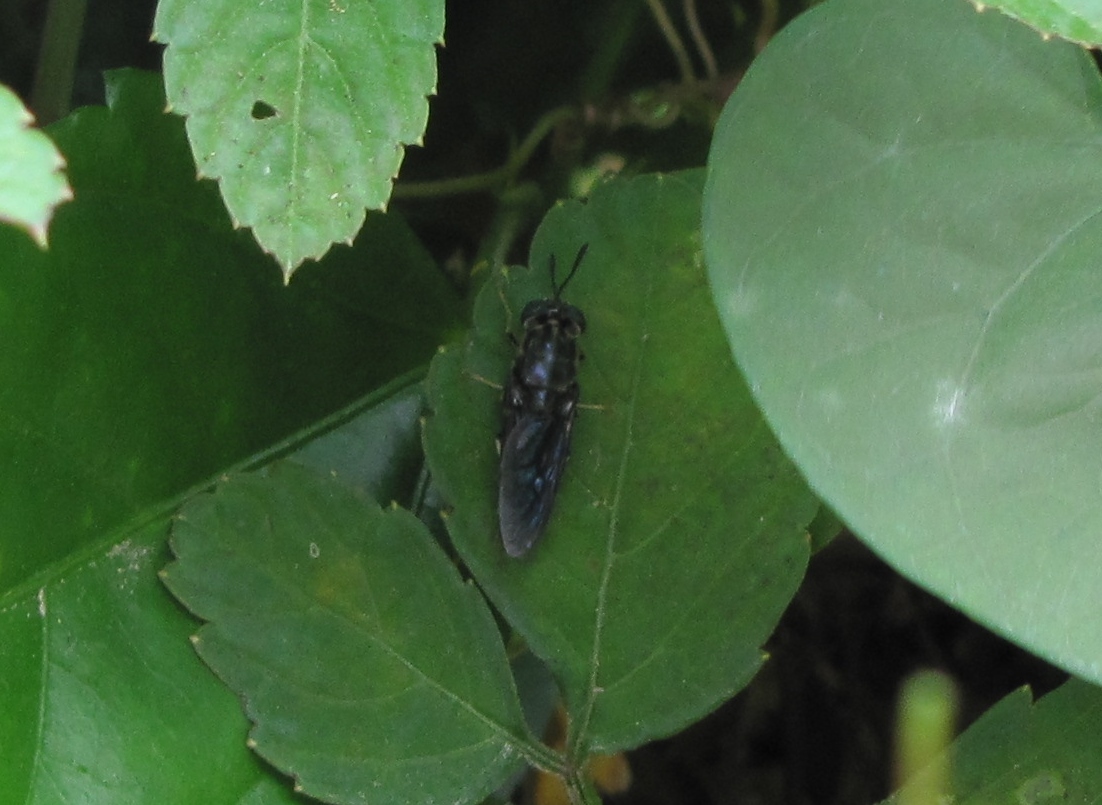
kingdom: Animalia
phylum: Arthropoda
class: Insecta
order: Diptera
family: Stratiomyidae
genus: Hermetia
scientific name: Hermetia illucens
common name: Black soldier fly
